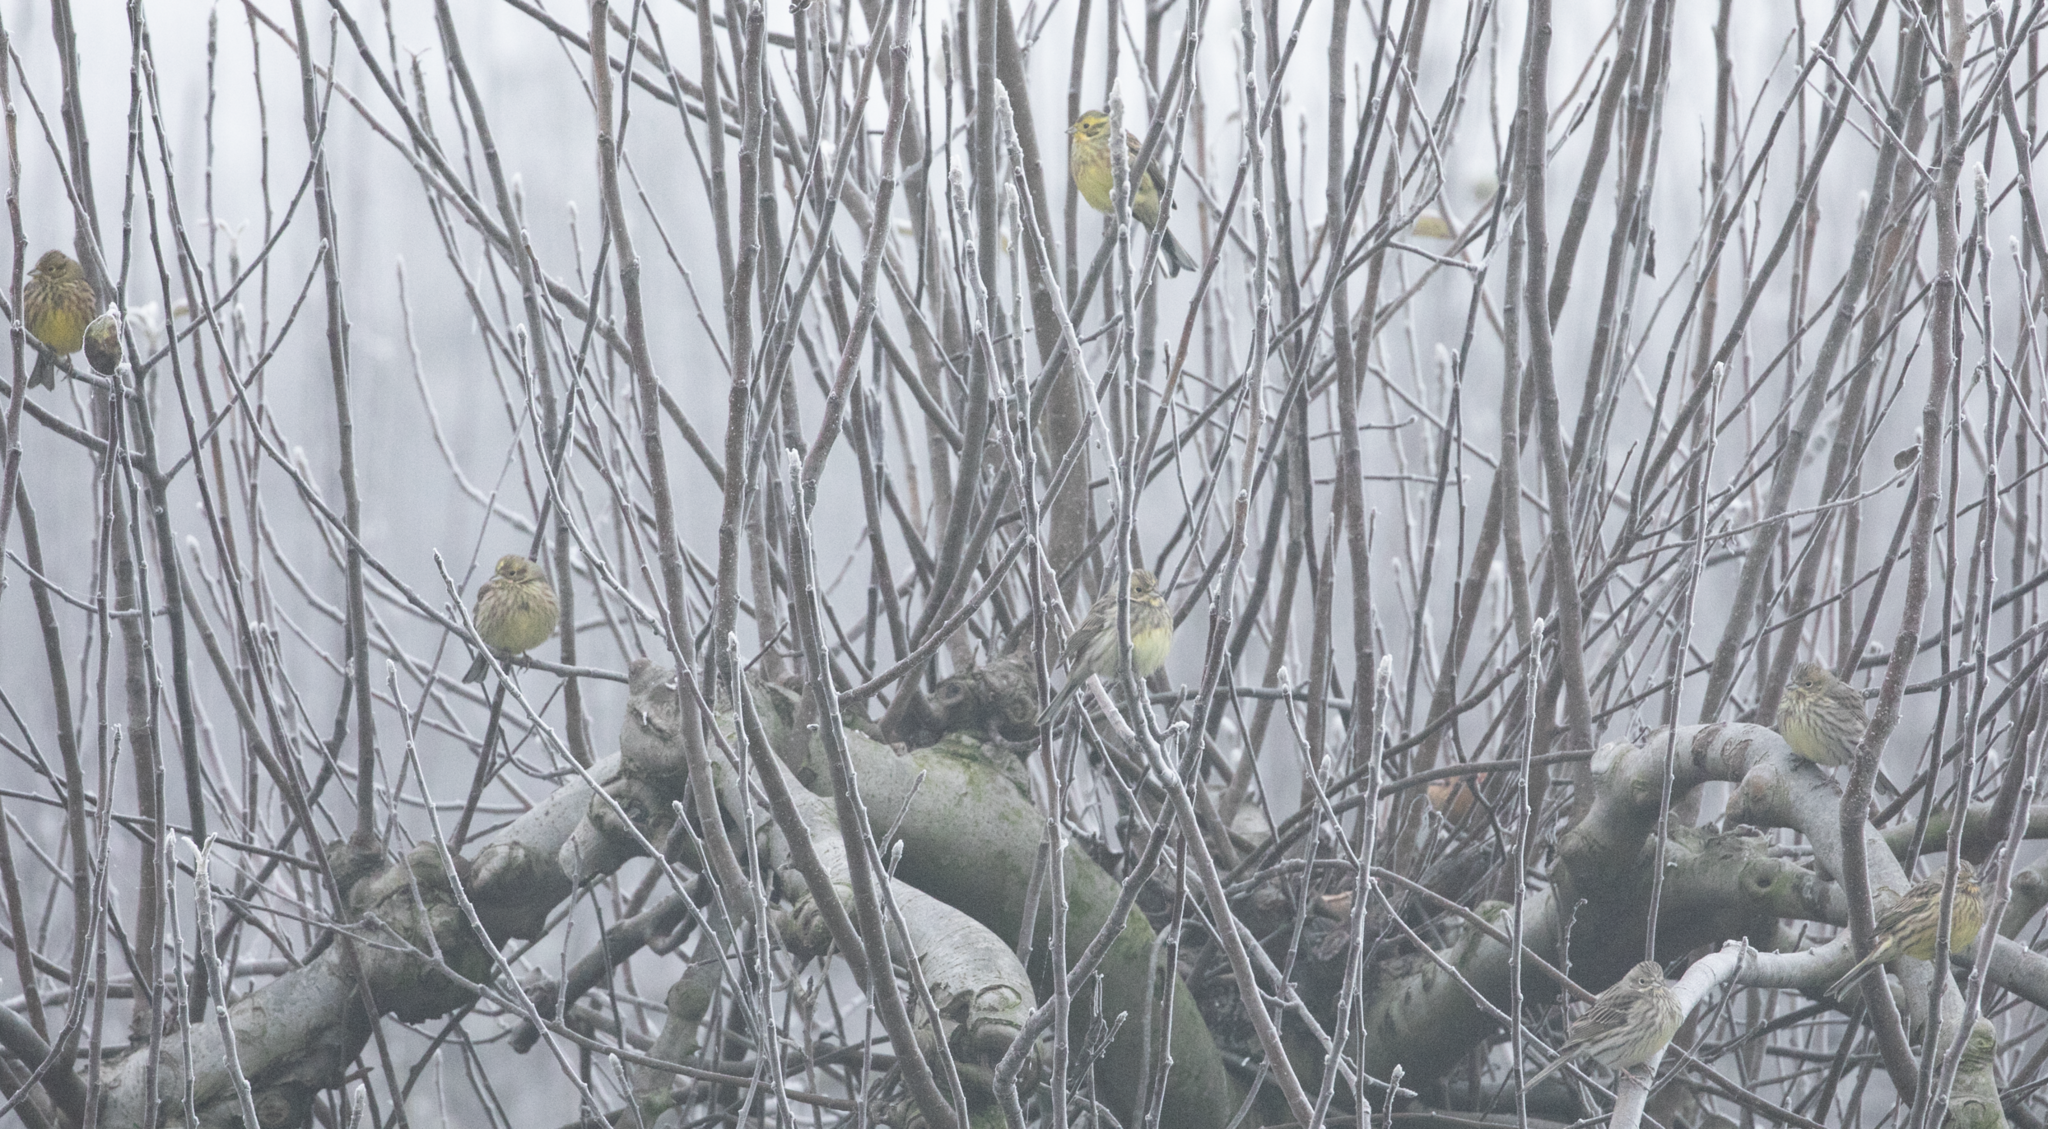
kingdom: Animalia
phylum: Chordata
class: Aves
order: Passeriformes
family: Emberizidae
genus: Emberiza
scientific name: Emberiza citrinella
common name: Yellowhammer
